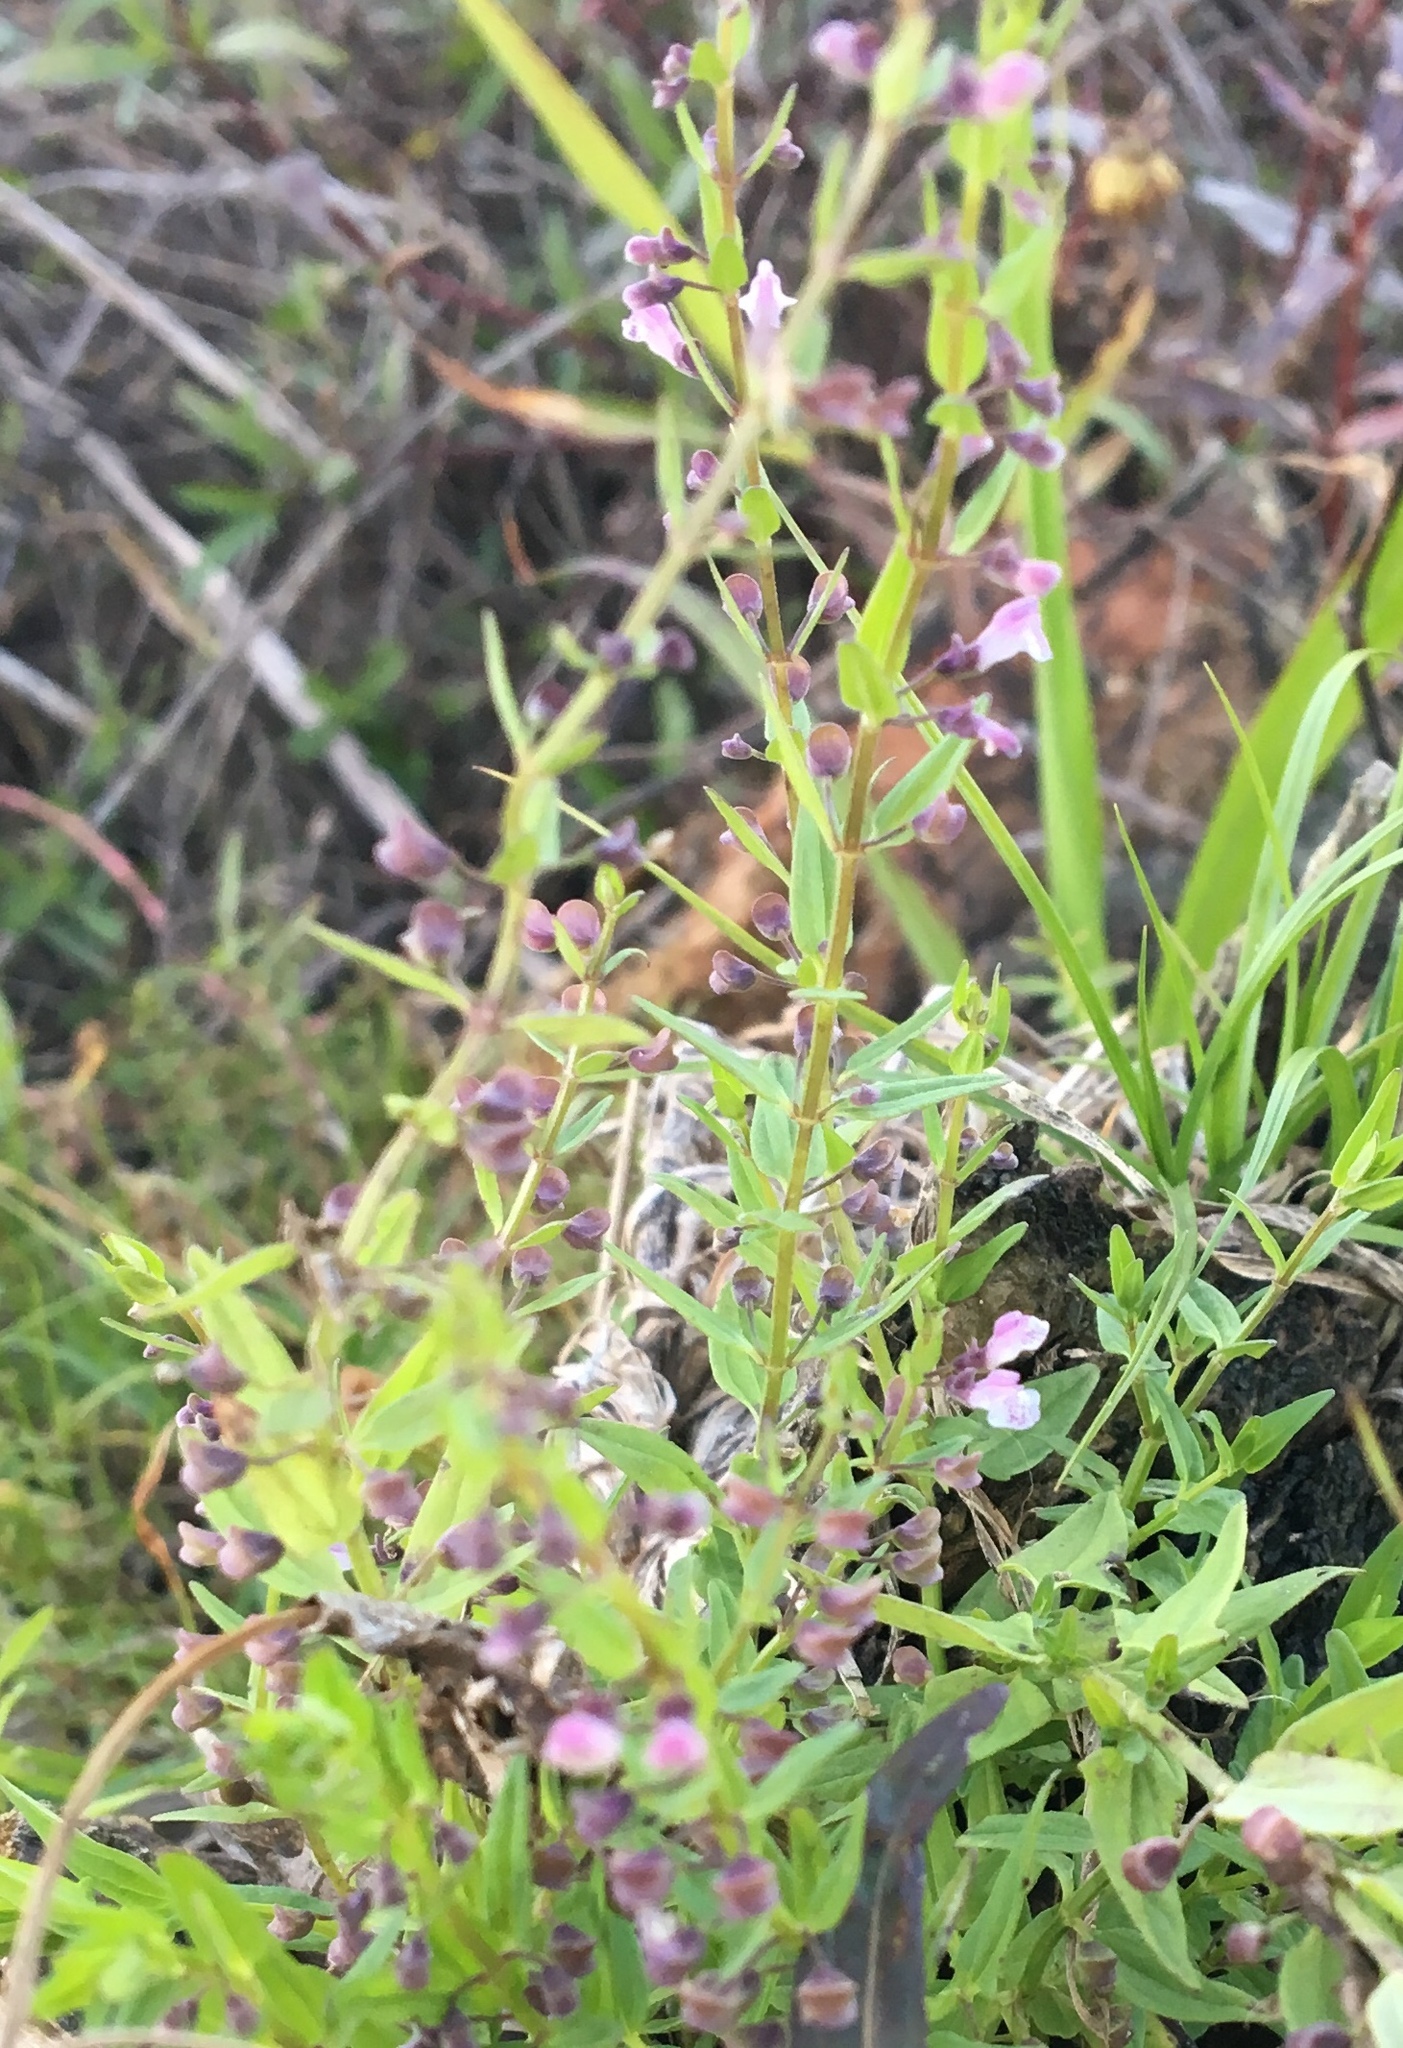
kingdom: Plantae
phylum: Tracheophyta
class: Magnoliopsida
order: Lamiales
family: Lamiaceae
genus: Scutellaria
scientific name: Scutellaria racemosa
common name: South american skullcap
